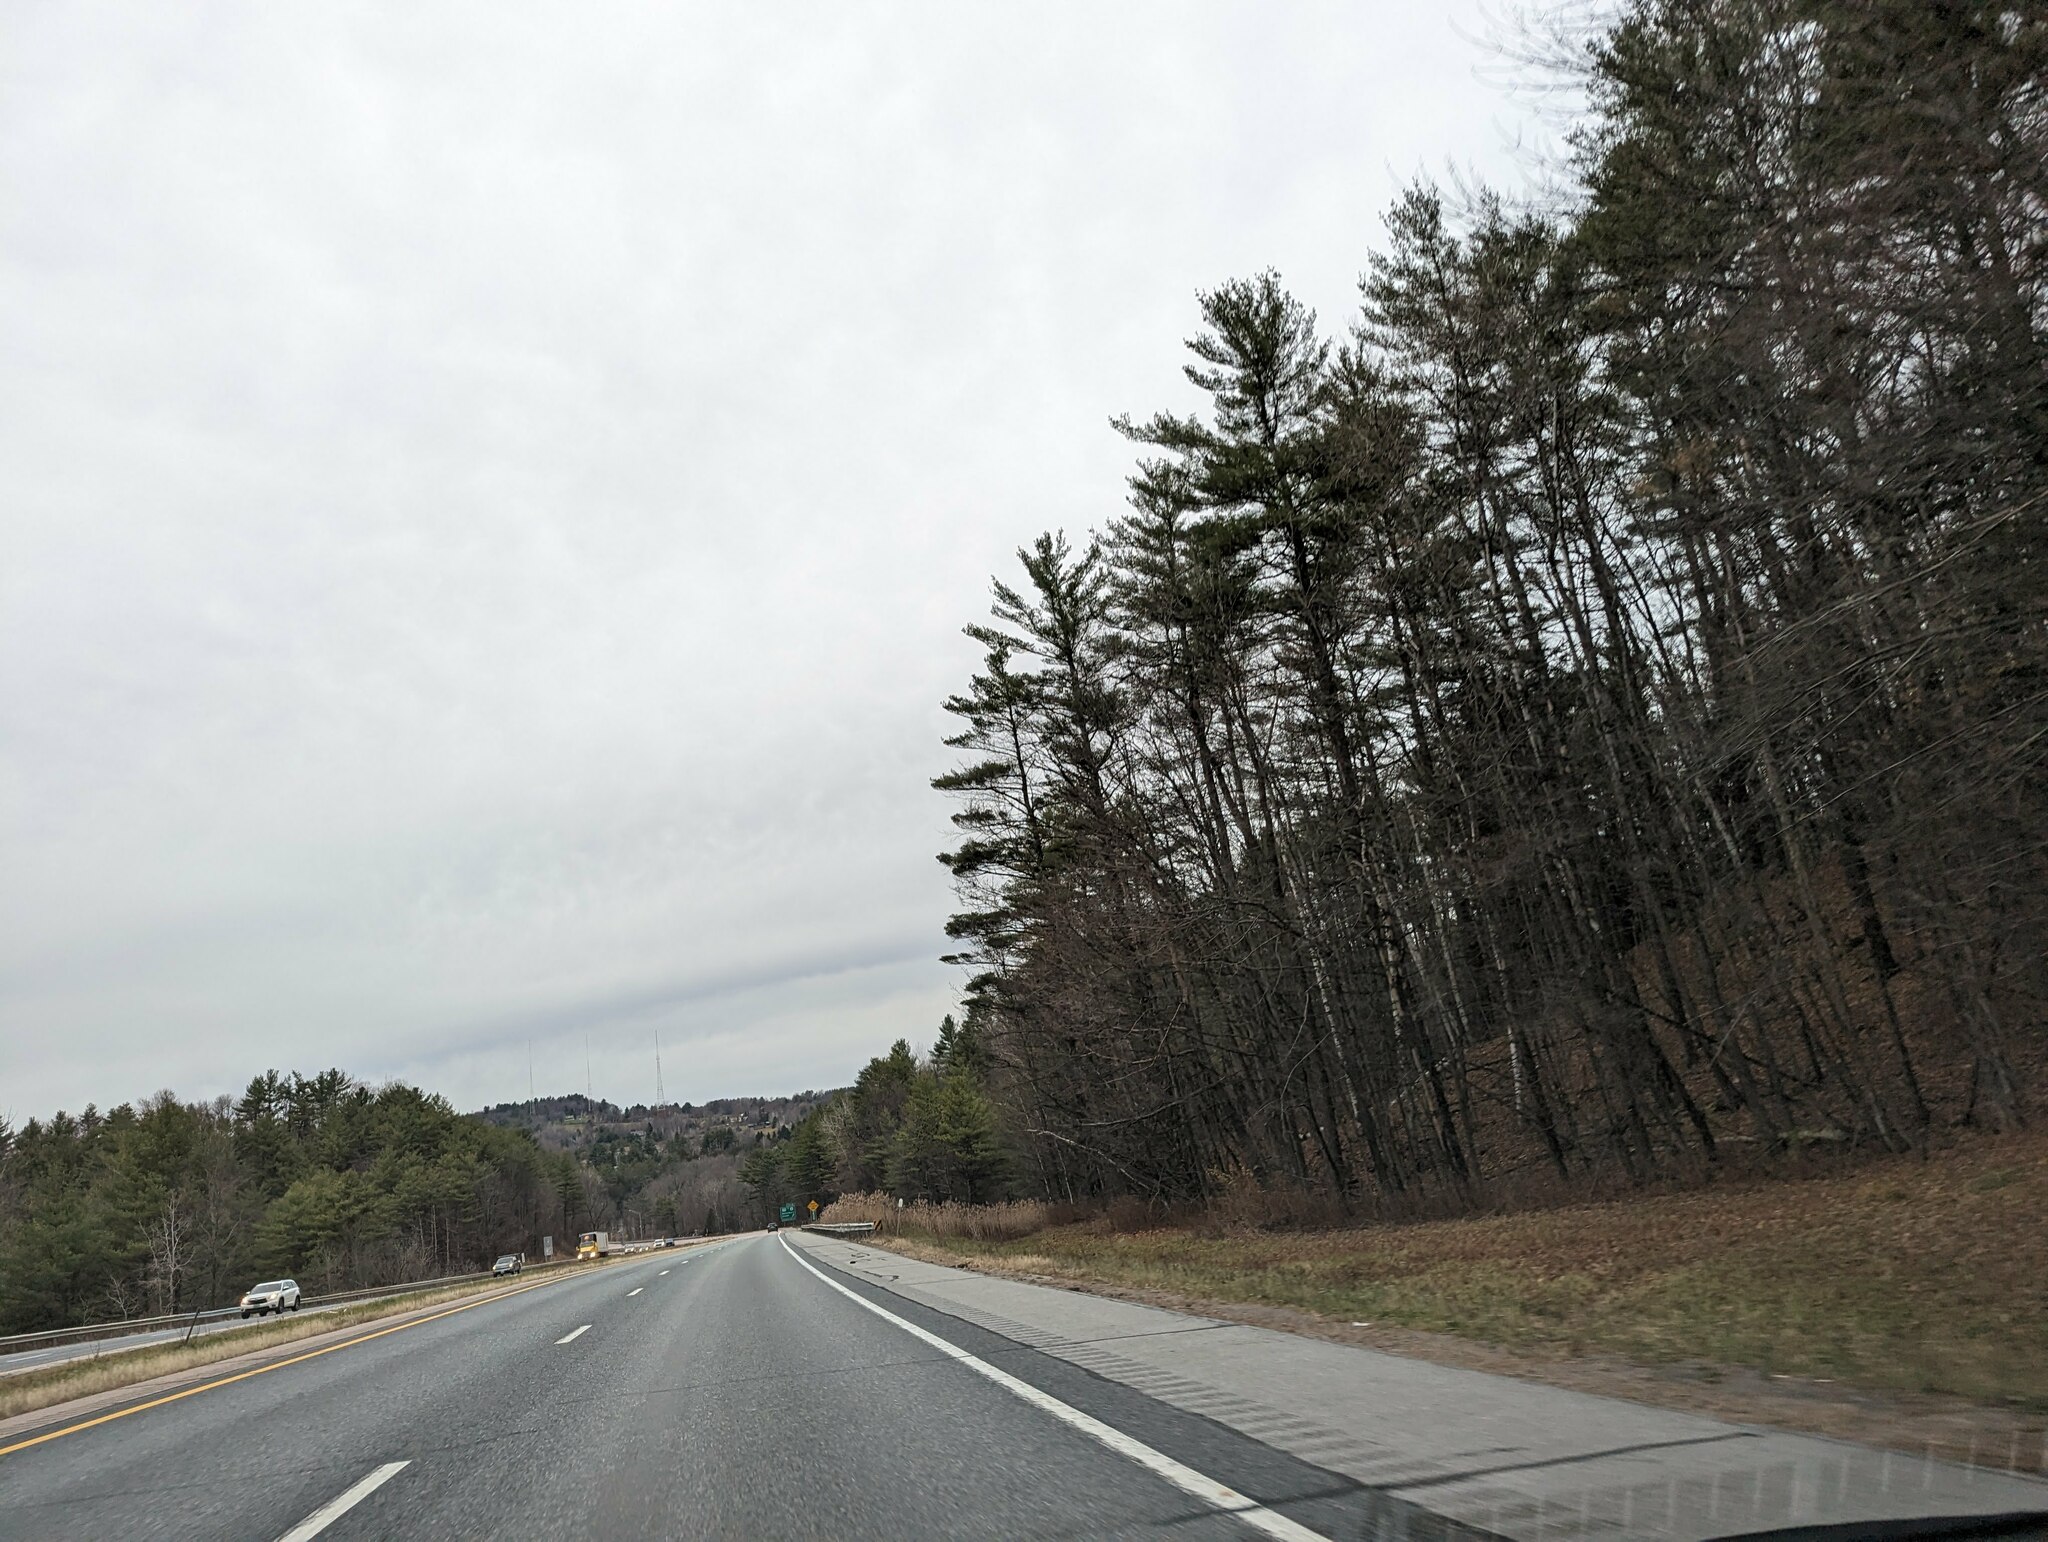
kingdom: Plantae
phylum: Tracheophyta
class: Pinopsida
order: Pinales
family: Pinaceae
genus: Pinus
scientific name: Pinus strobus
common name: Weymouth pine
